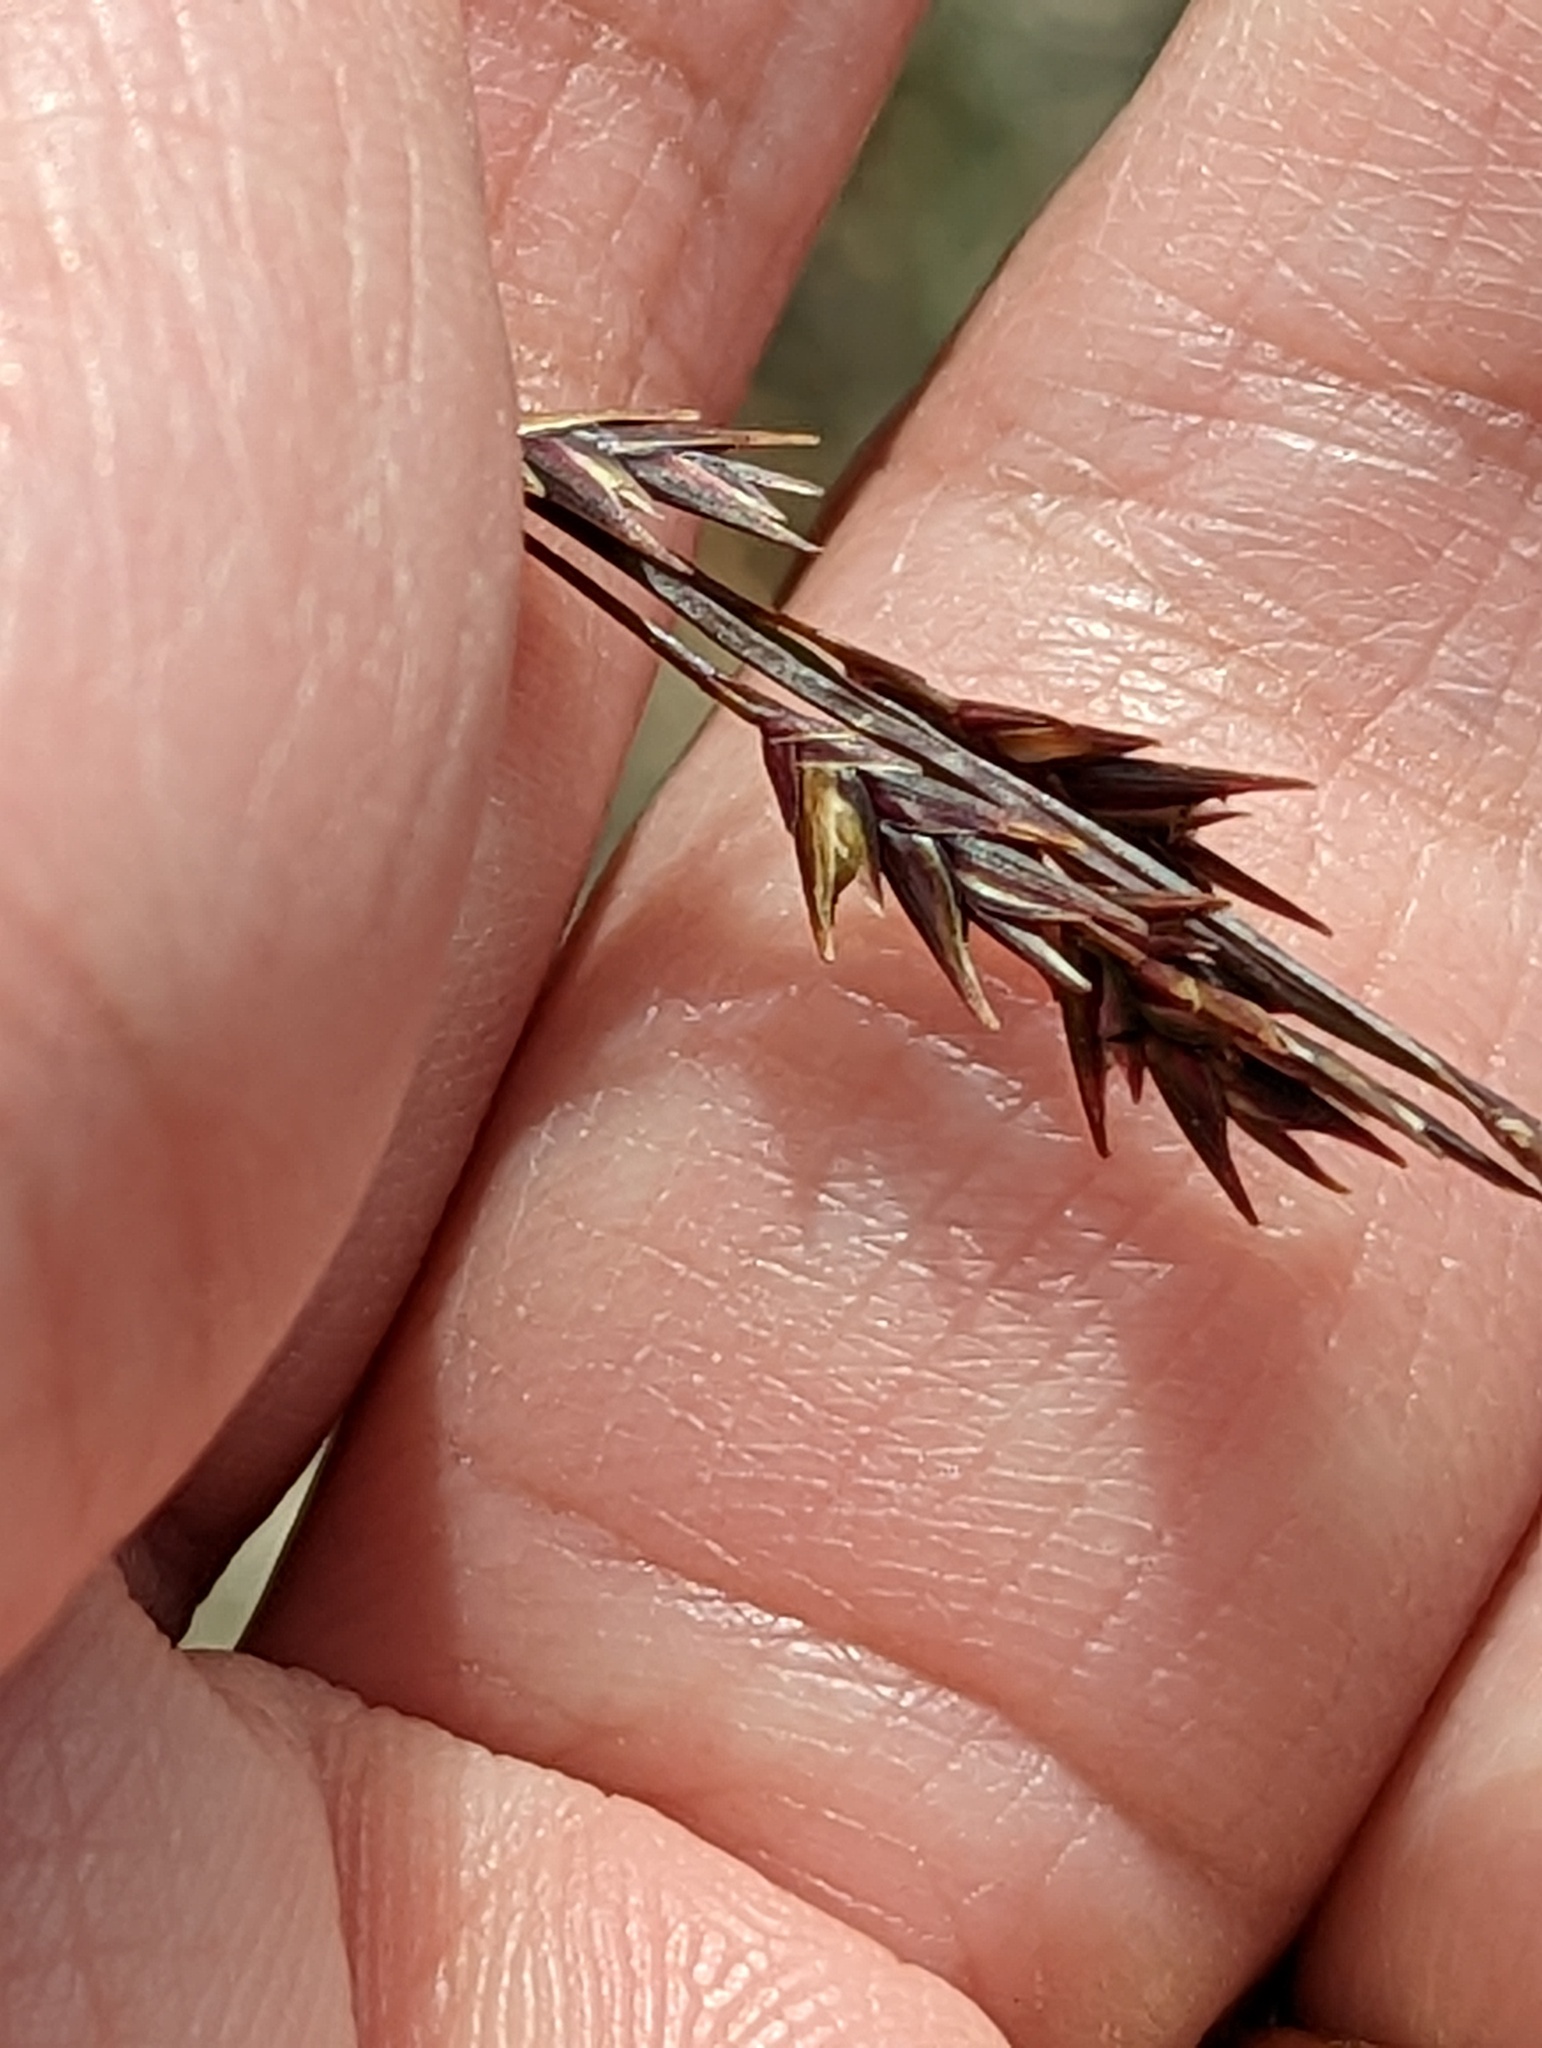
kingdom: Plantae
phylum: Tracheophyta
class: Liliopsida
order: Poales
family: Poaceae
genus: Chasmanthium
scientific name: Chasmanthium laxum
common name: Slender chasmanthium
